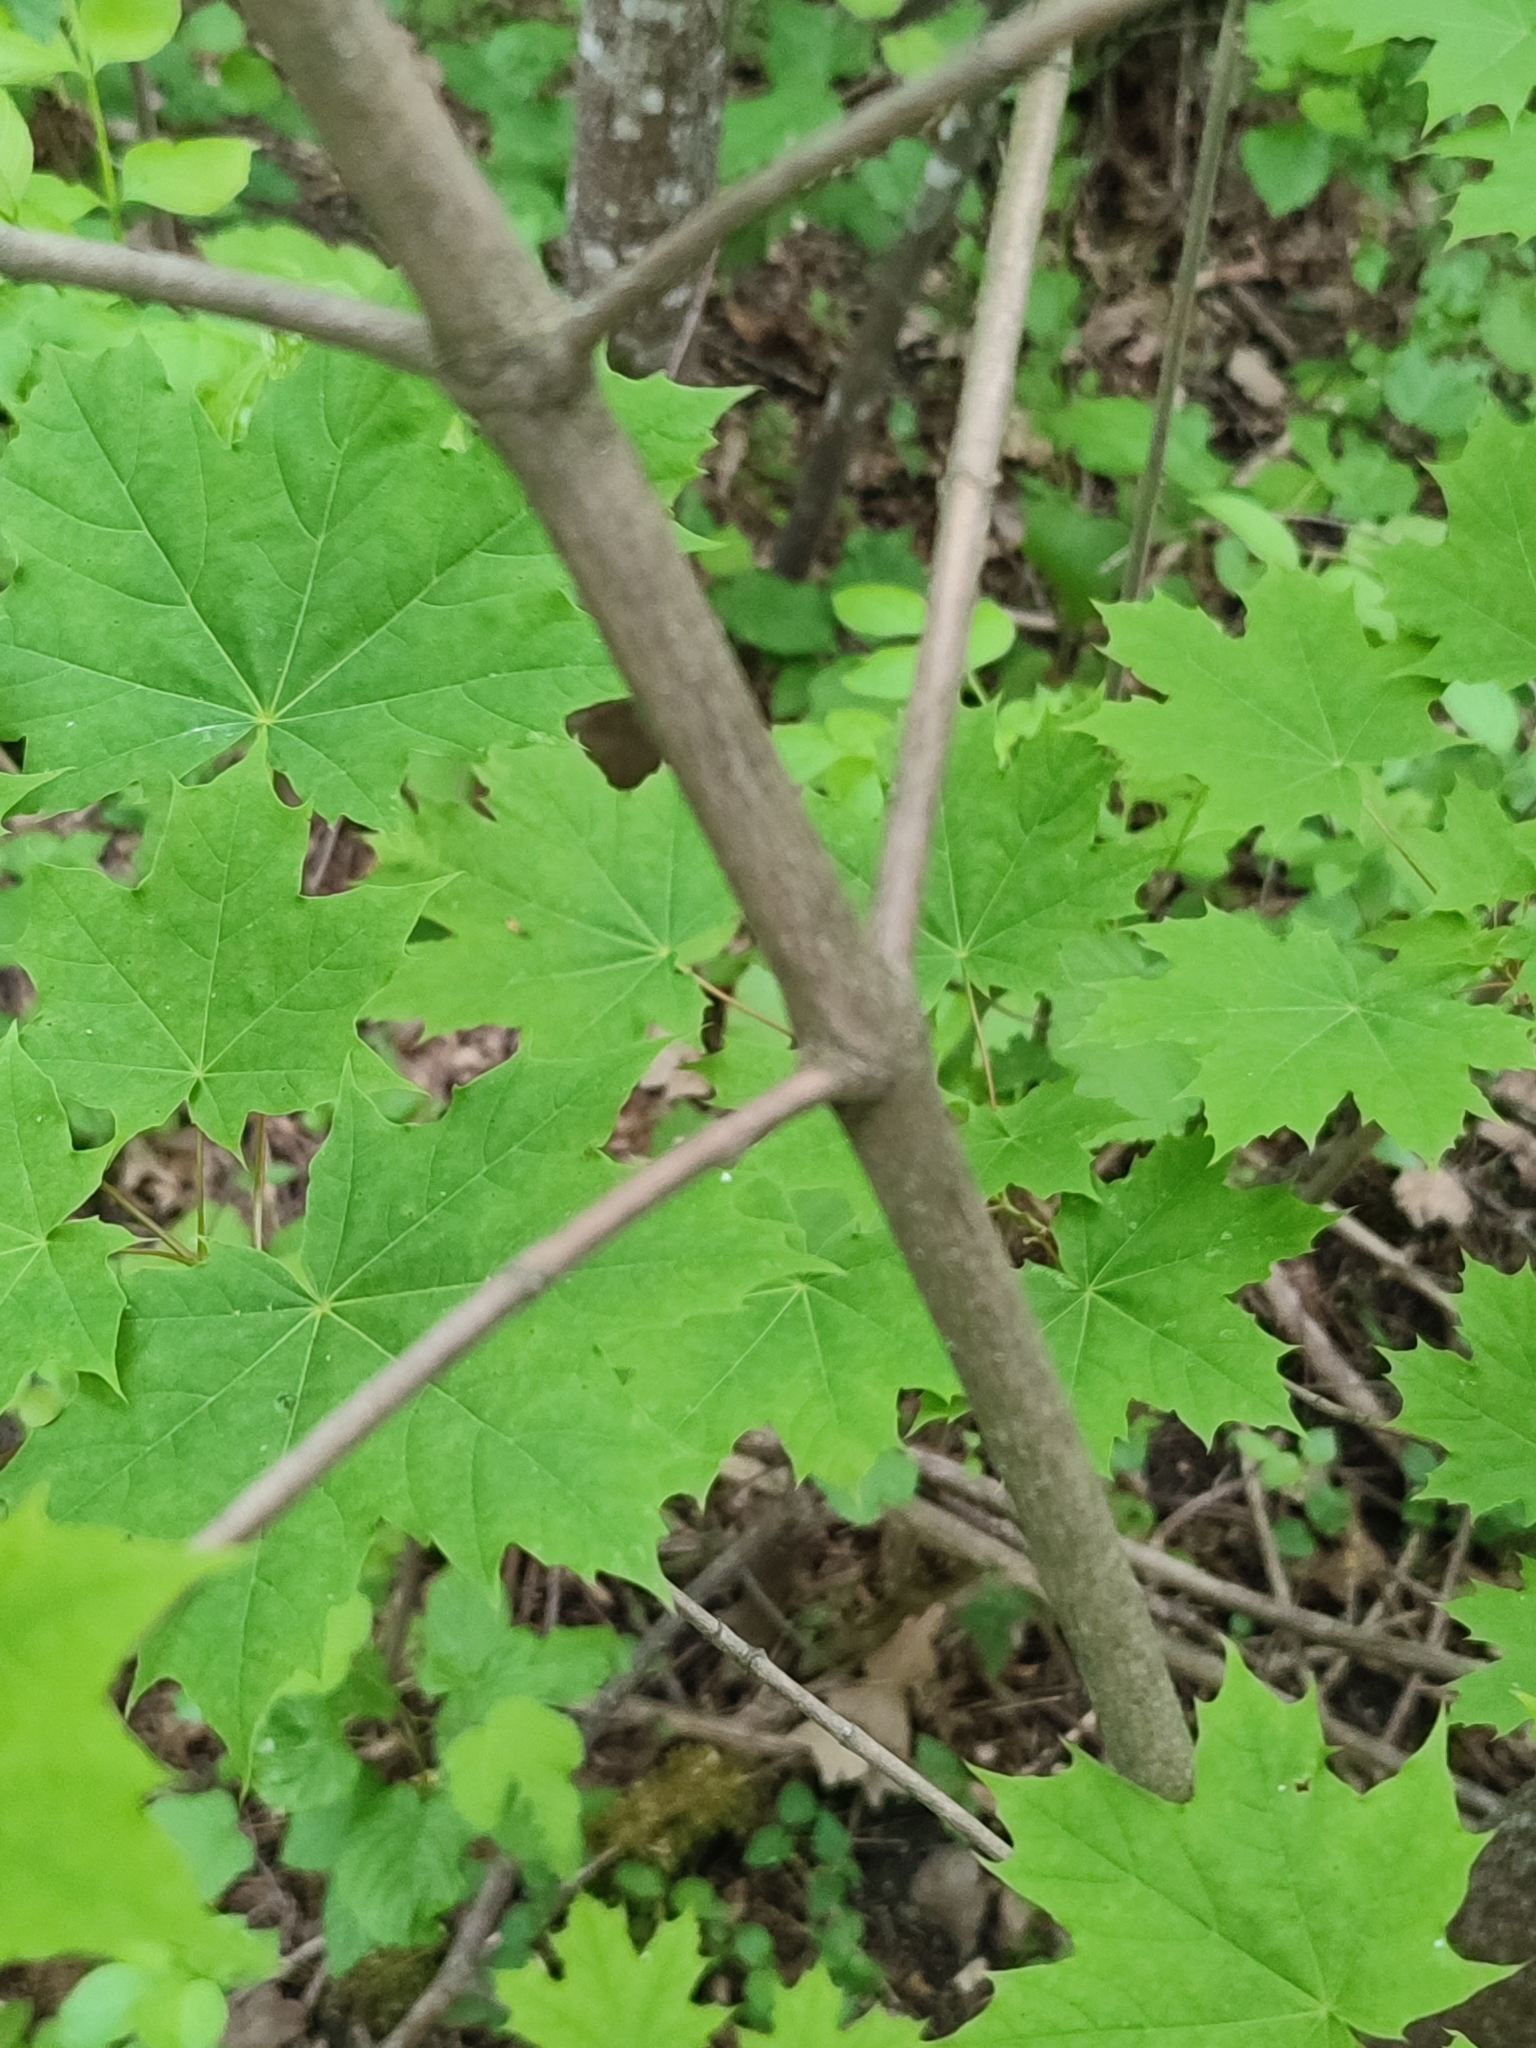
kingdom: Plantae
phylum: Tracheophyta
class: Magnoliopsida
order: Sapindales
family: Sapindaceae
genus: Acer
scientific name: Acer platanoides
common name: Norway maple
